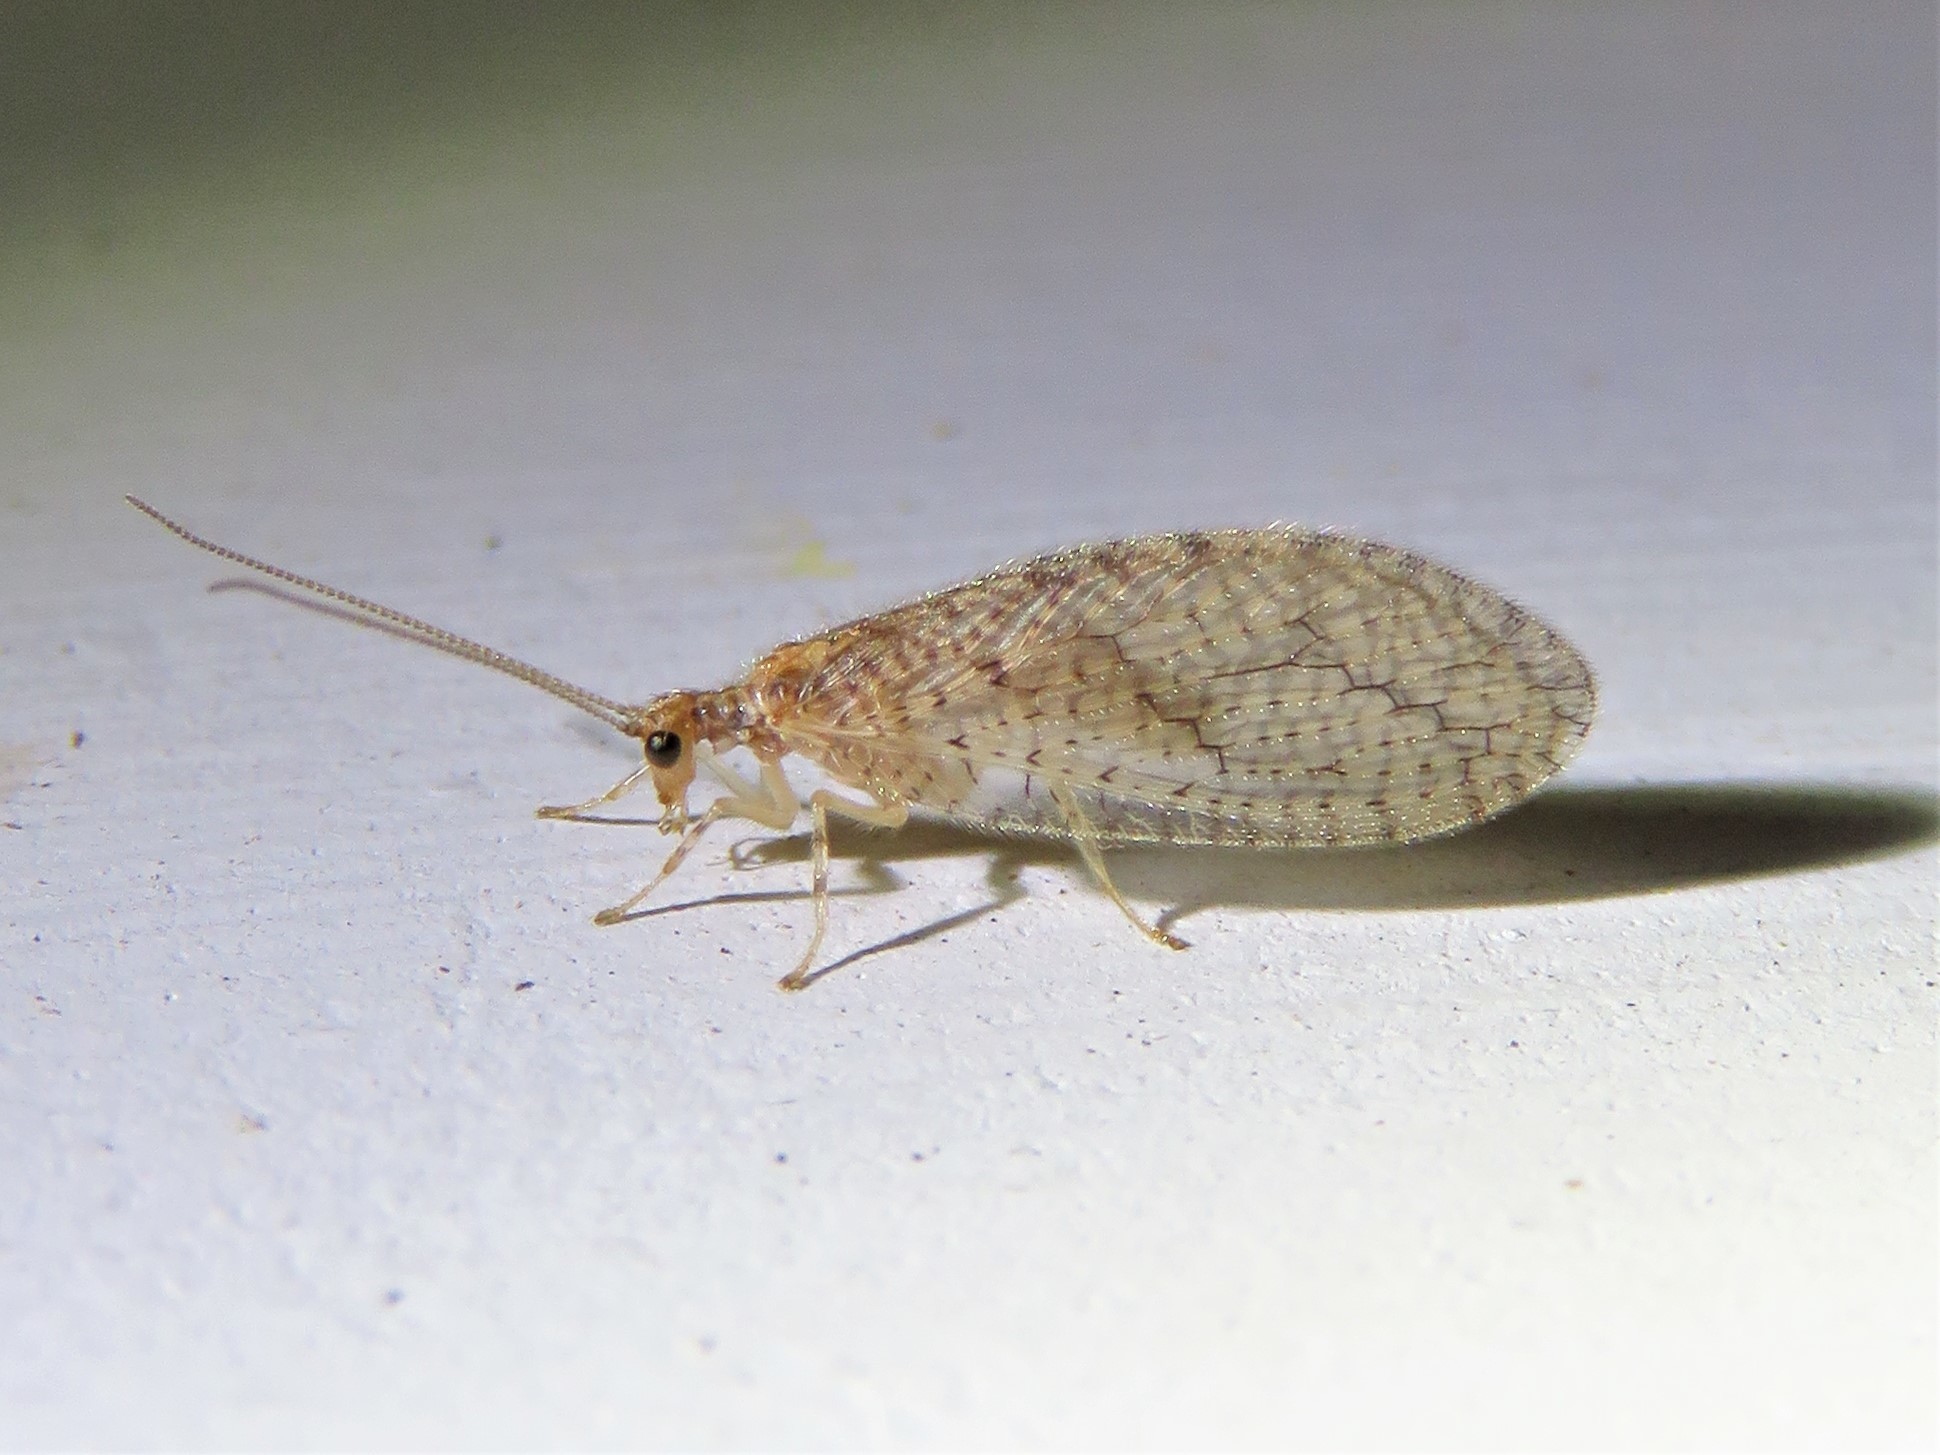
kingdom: Animalia
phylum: Arthropoda
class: Insecta
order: Neuroptera
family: Hemerobiidae
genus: Micromus
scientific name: Micromus posticus
